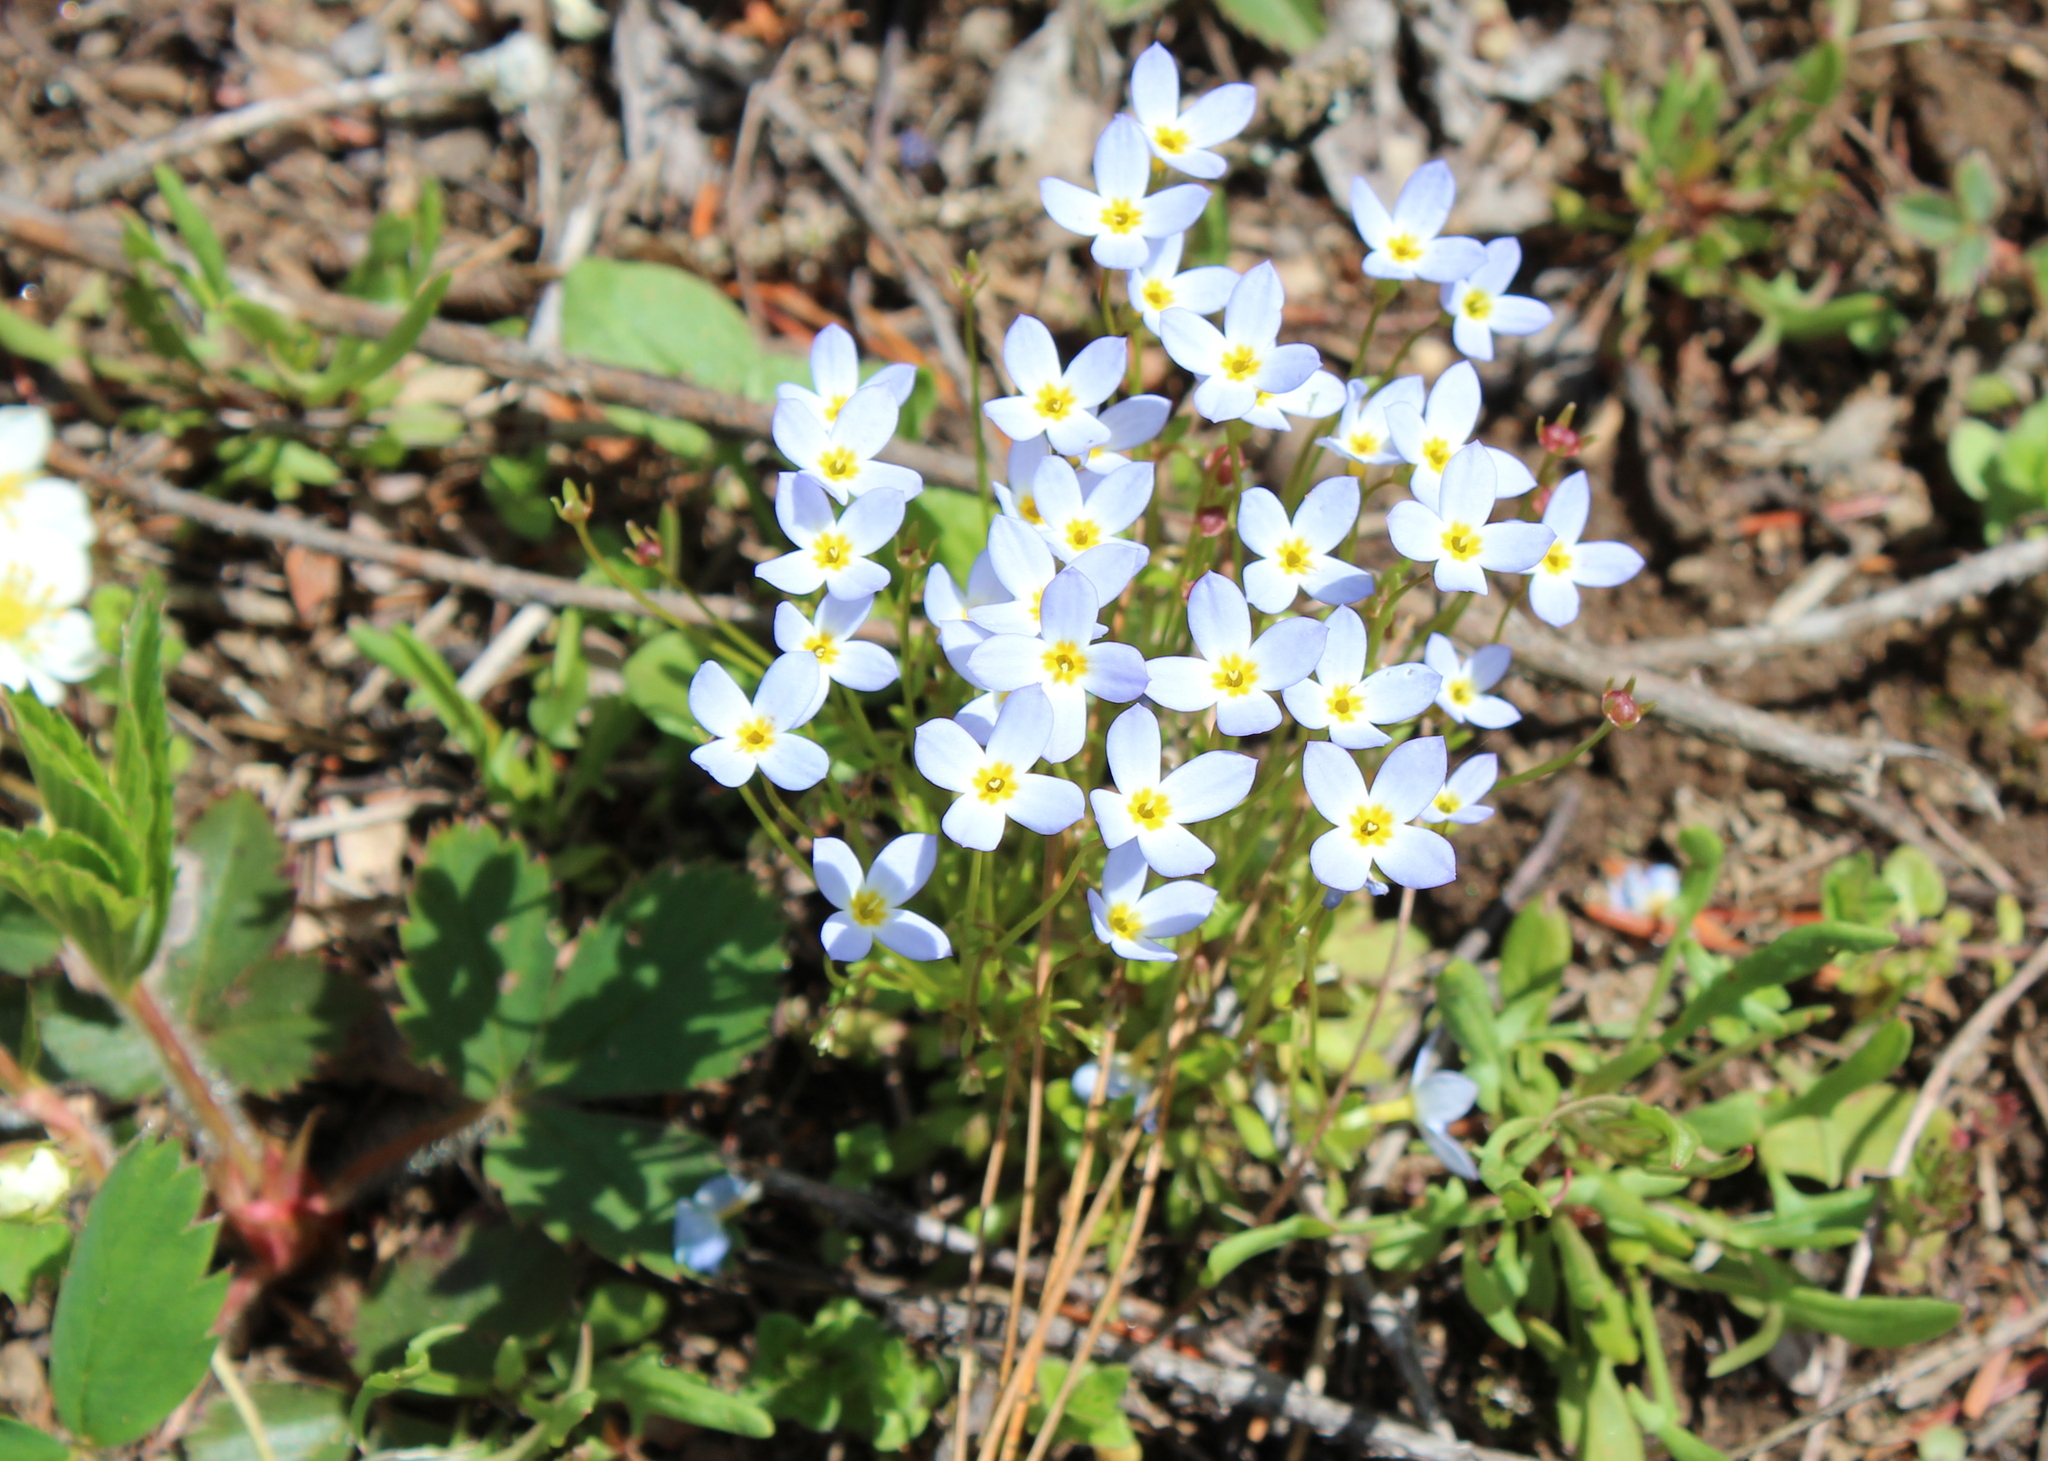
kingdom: Plantae
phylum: Tracheophyta
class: Magnoliopsida
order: Gentianales
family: Rubiaceae
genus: Houstonia
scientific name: Houstonia caerulea
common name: Bluets
